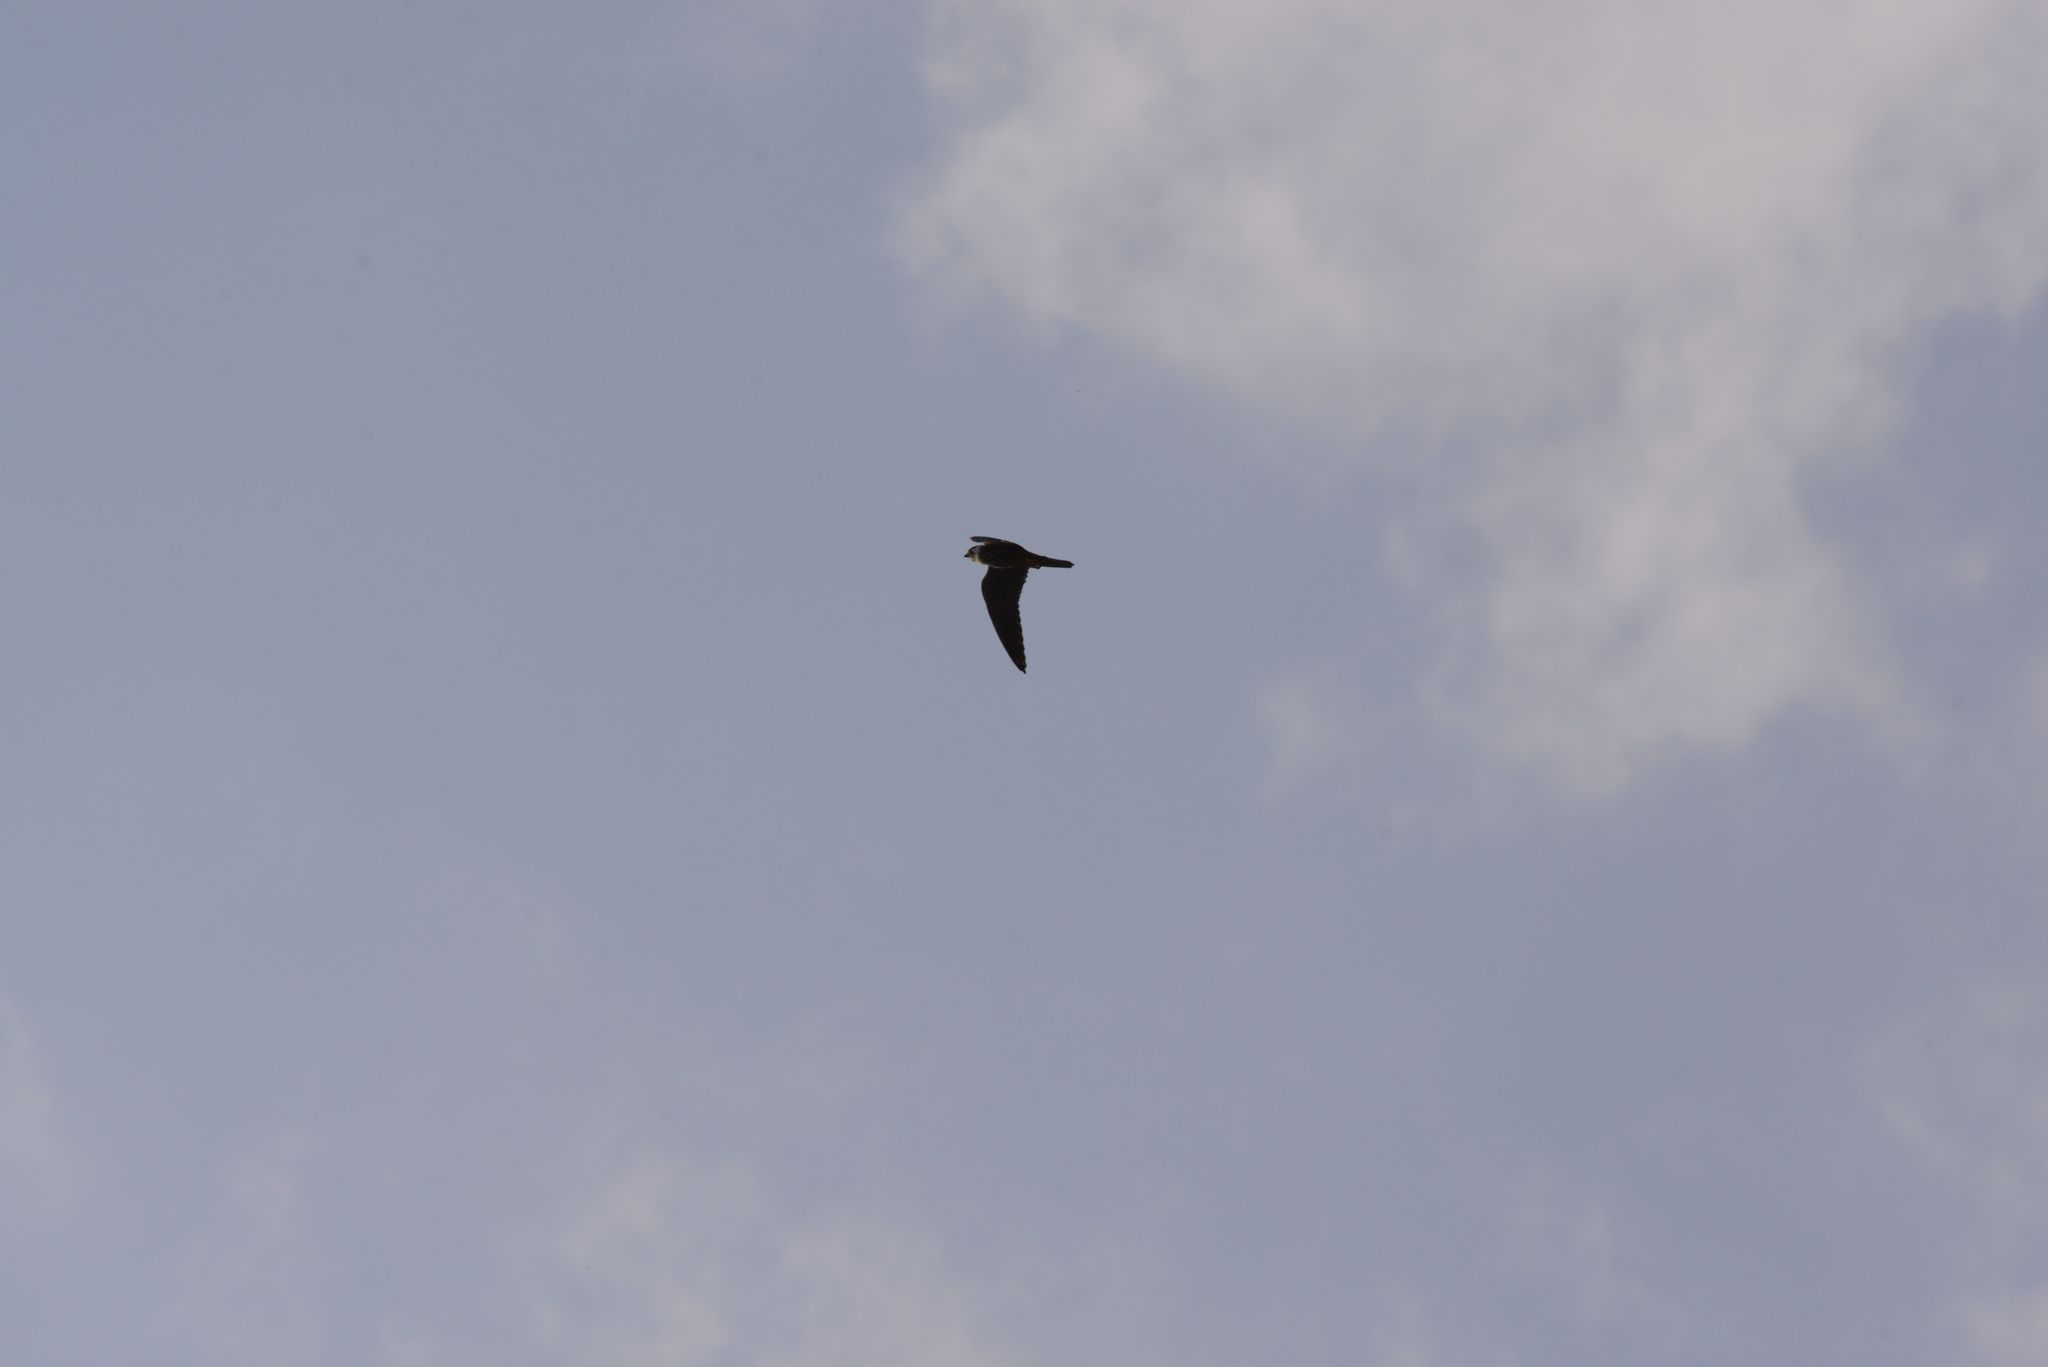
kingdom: Animalia
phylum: Chordata
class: Aves
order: Falconiformes
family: Falconidae
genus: Falco
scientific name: Falco subbuteo
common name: Eurasian hobby
